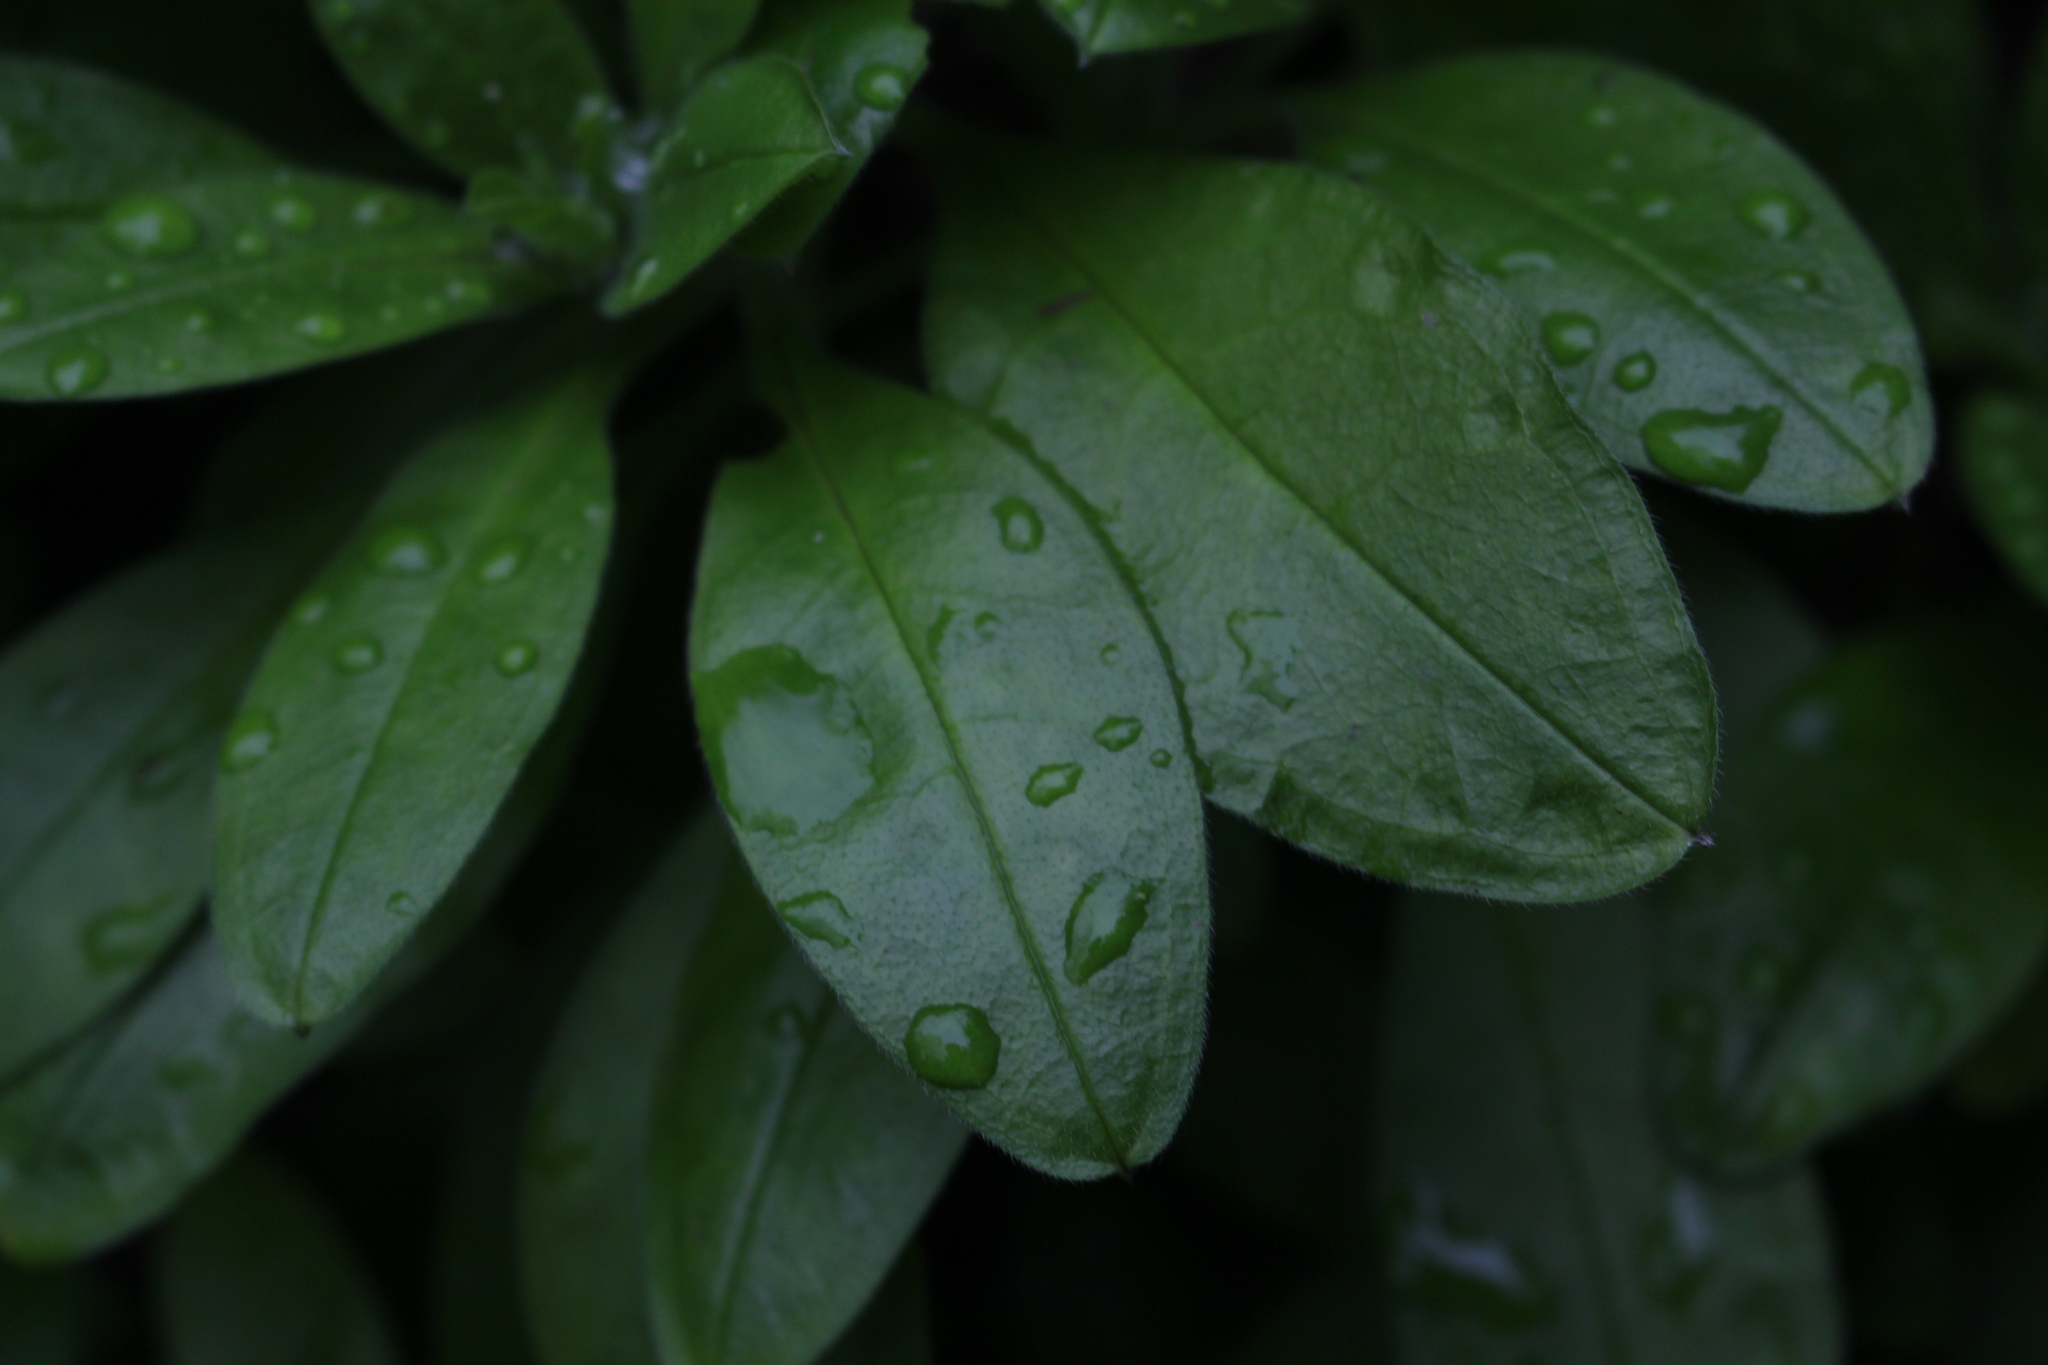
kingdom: Plantae
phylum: Tracheophyta
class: Magnoliopsida
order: Boraginales
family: Boraginaceae
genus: Myosotis
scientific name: Myosotis sylvatica
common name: Wood forget-me-not
